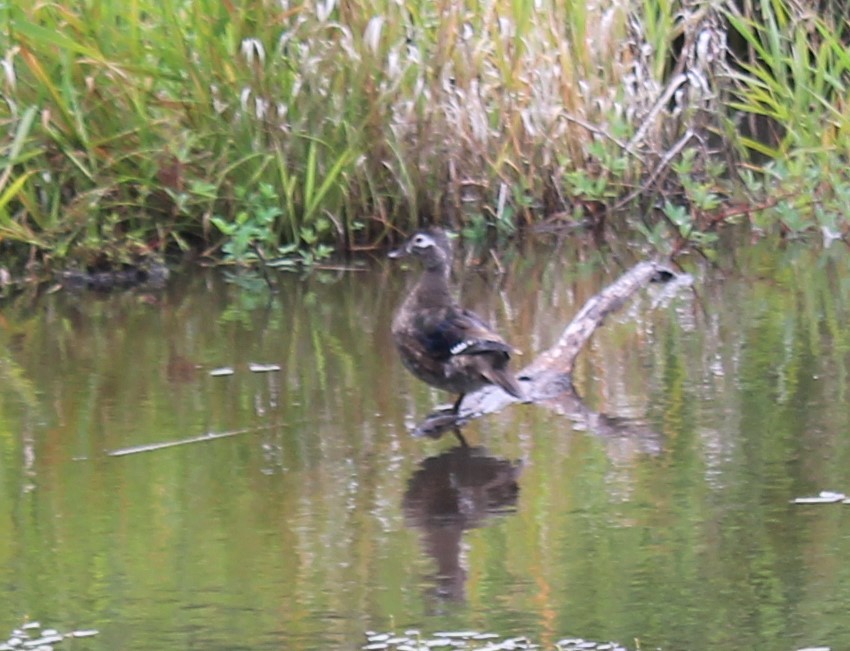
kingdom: Animalia
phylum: Chordata
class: Aves
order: Anseriformes
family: Anatidae
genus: Aix
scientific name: Aix sponsa
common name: Wood duck
